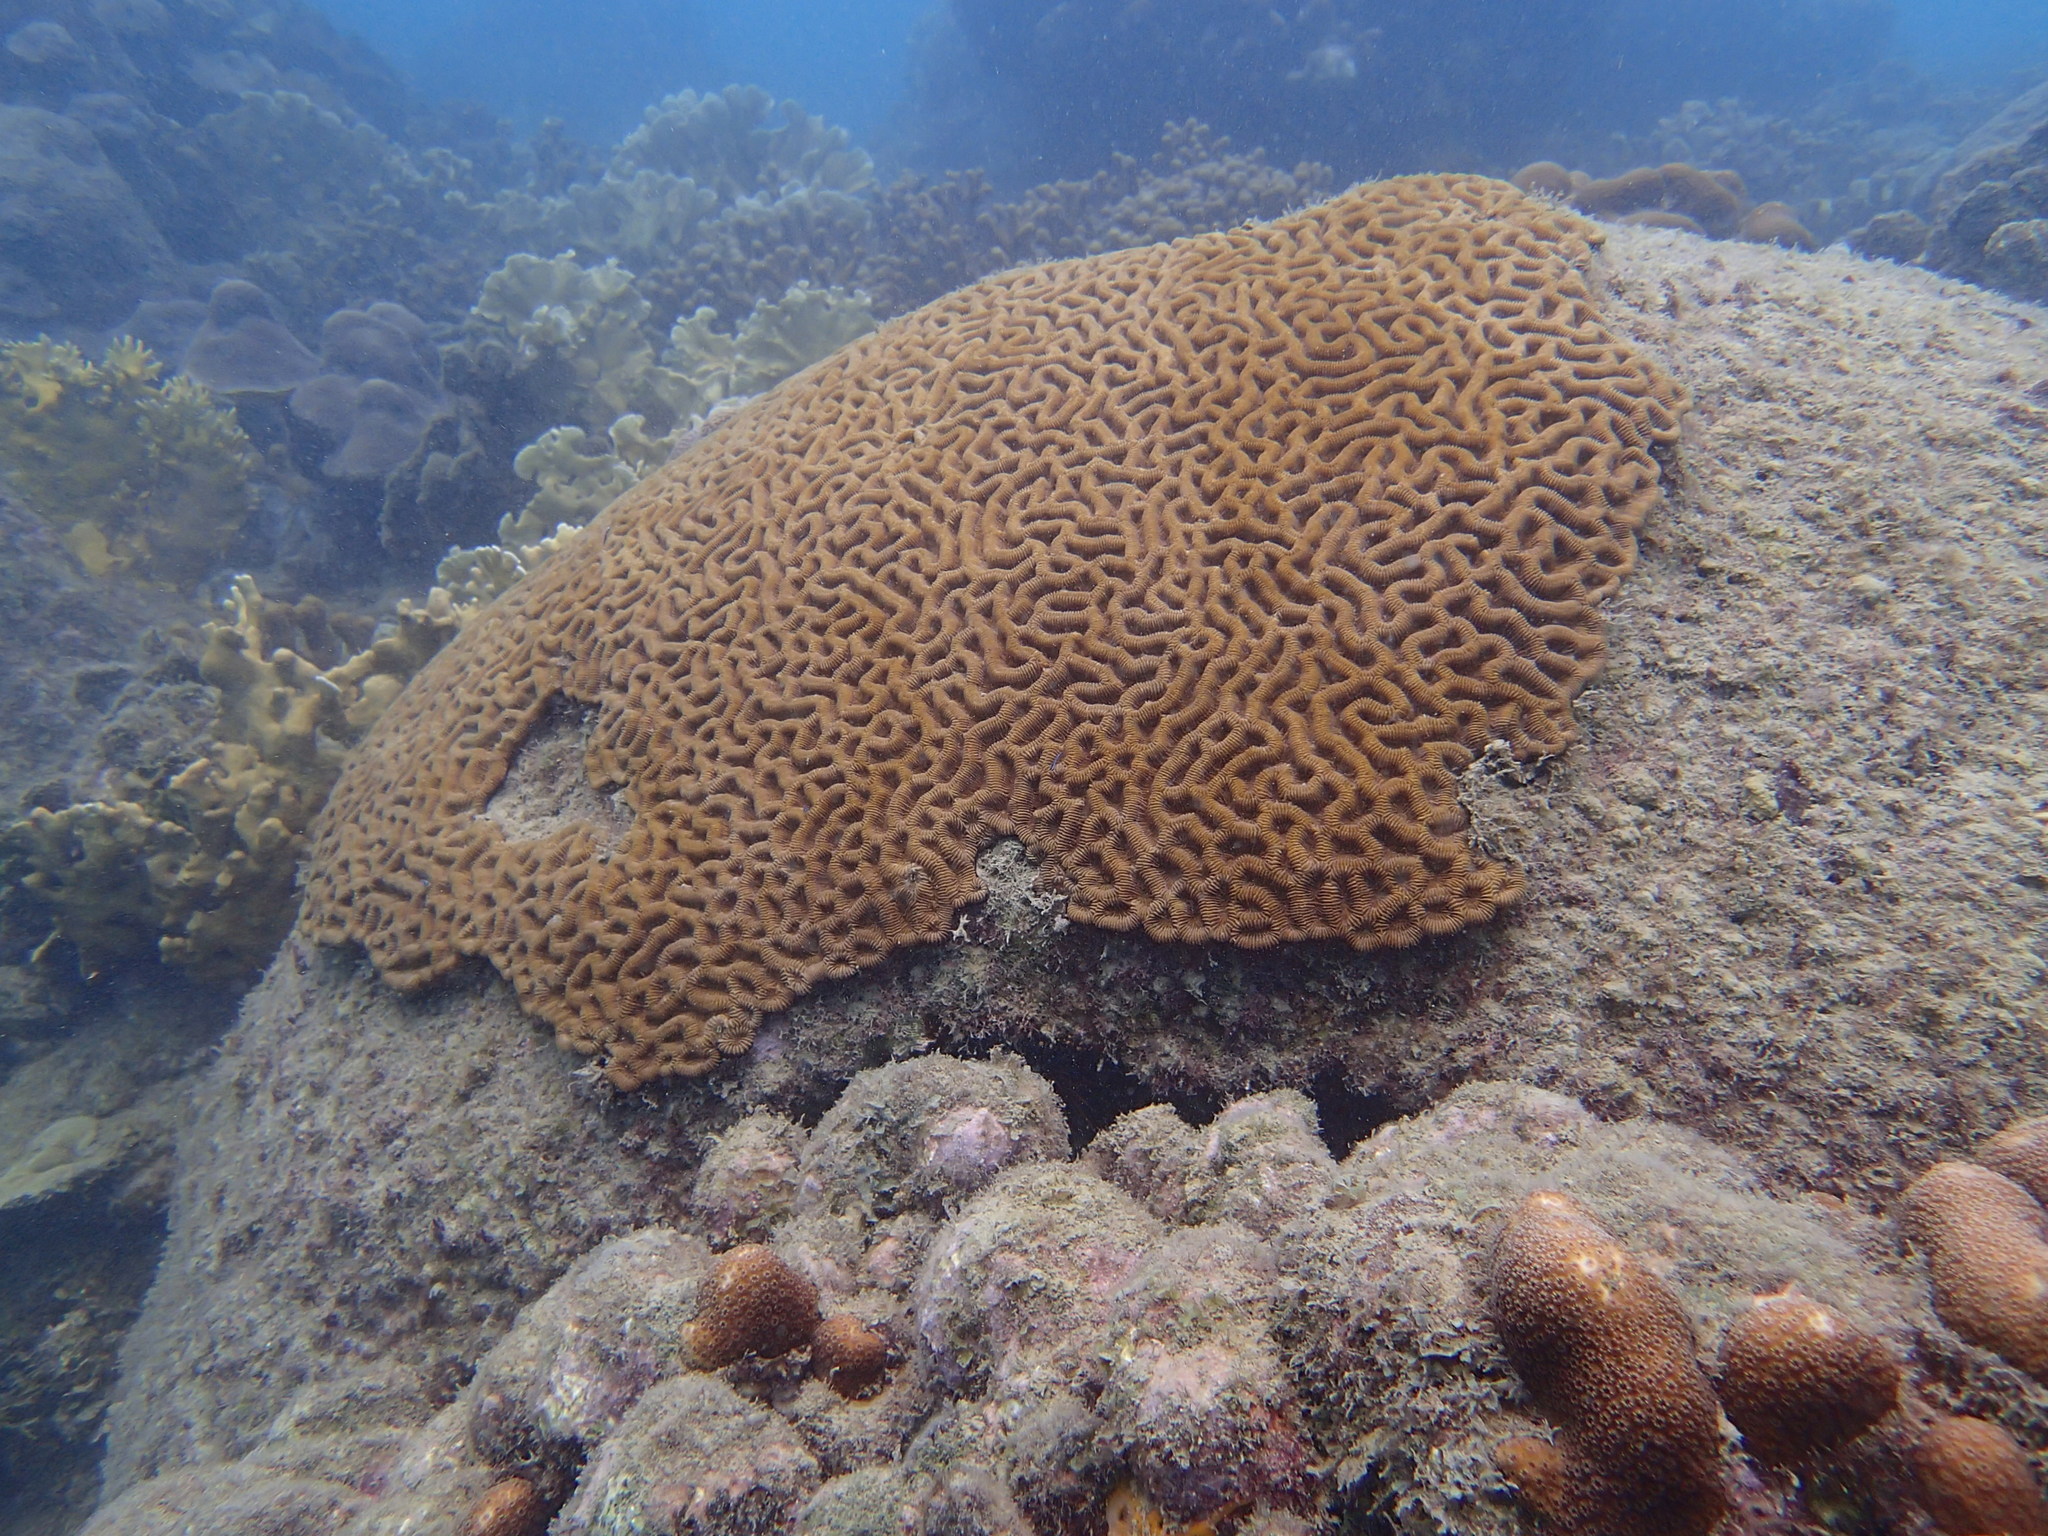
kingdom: Animalia
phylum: Cnidaria
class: Anthozoa
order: Scleractinia
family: Faviidae
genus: Colpophyllia
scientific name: Colpophyllia natans
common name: Boulder brain coral
